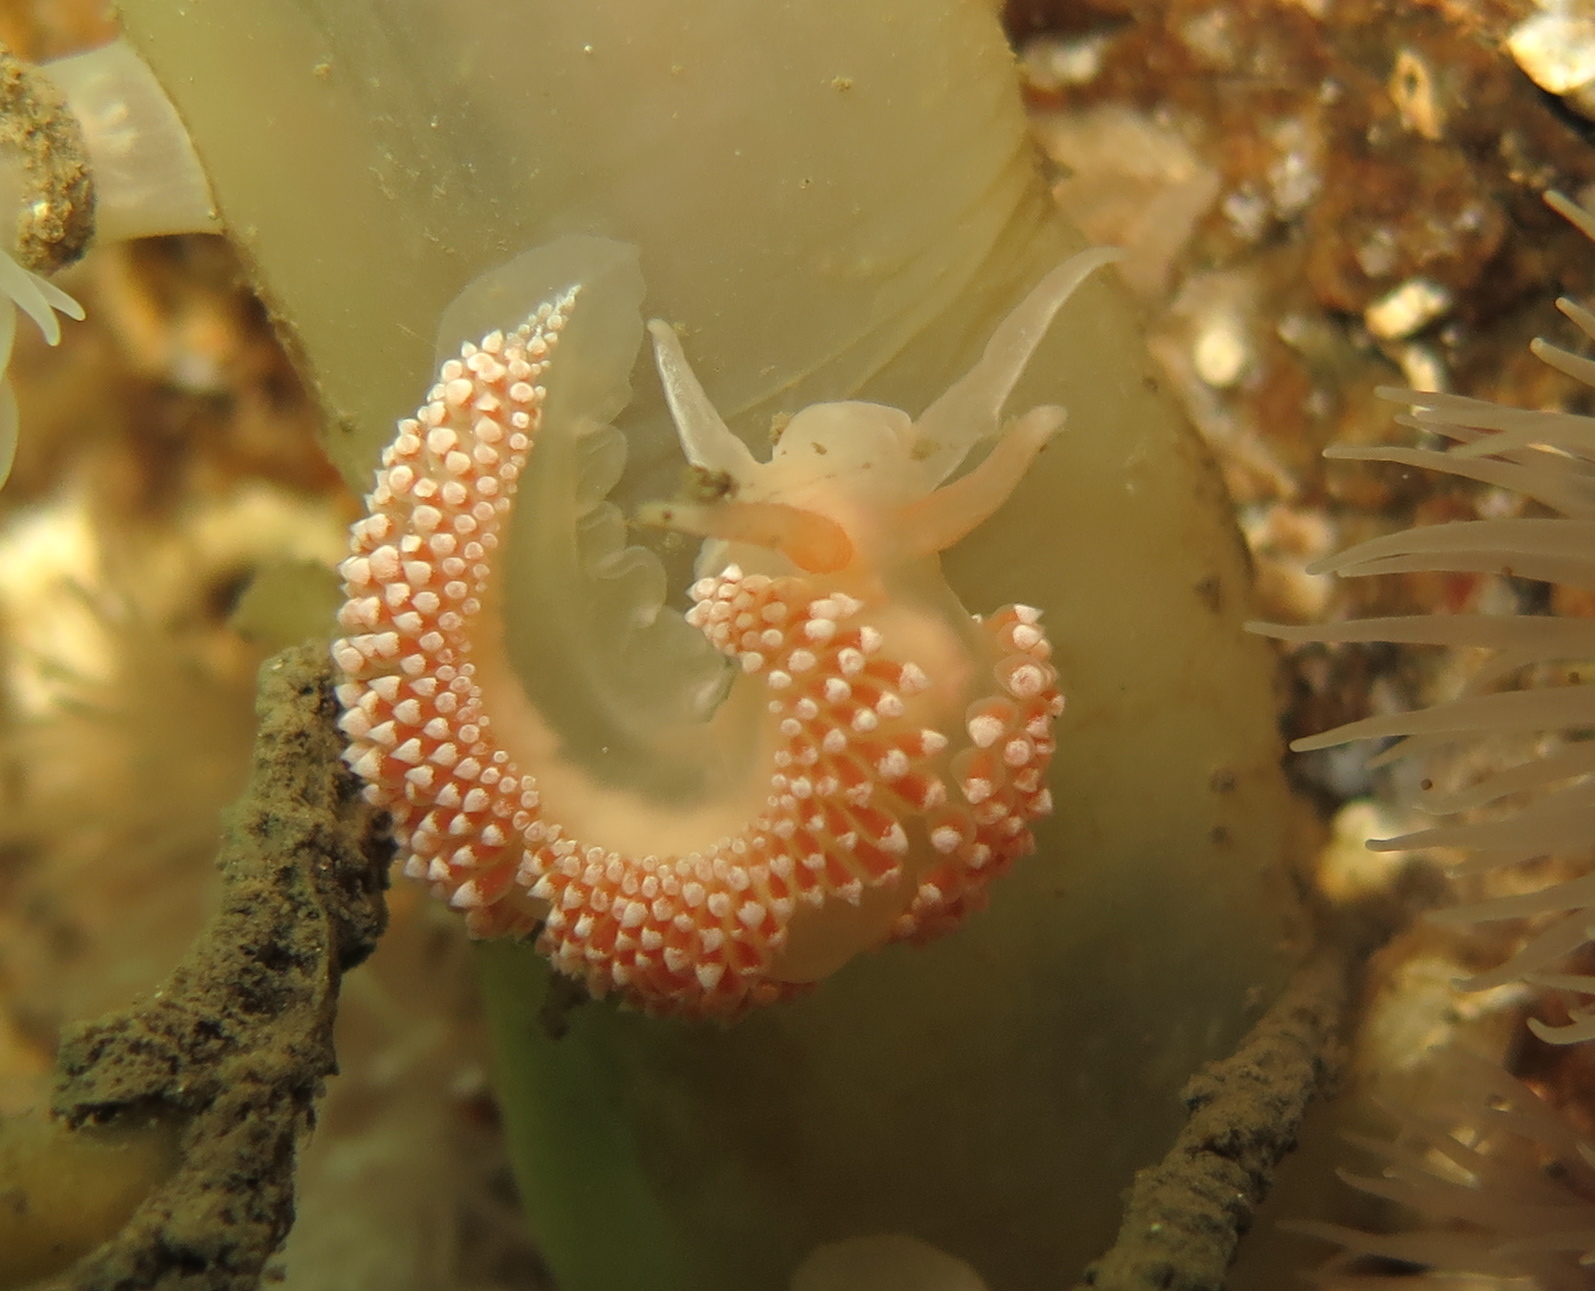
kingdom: Animalia
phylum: Mollusca
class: Gastropoda
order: Nudibranchia
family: Coryphellidae
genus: Coryphella
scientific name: Coryphella verrucosa
